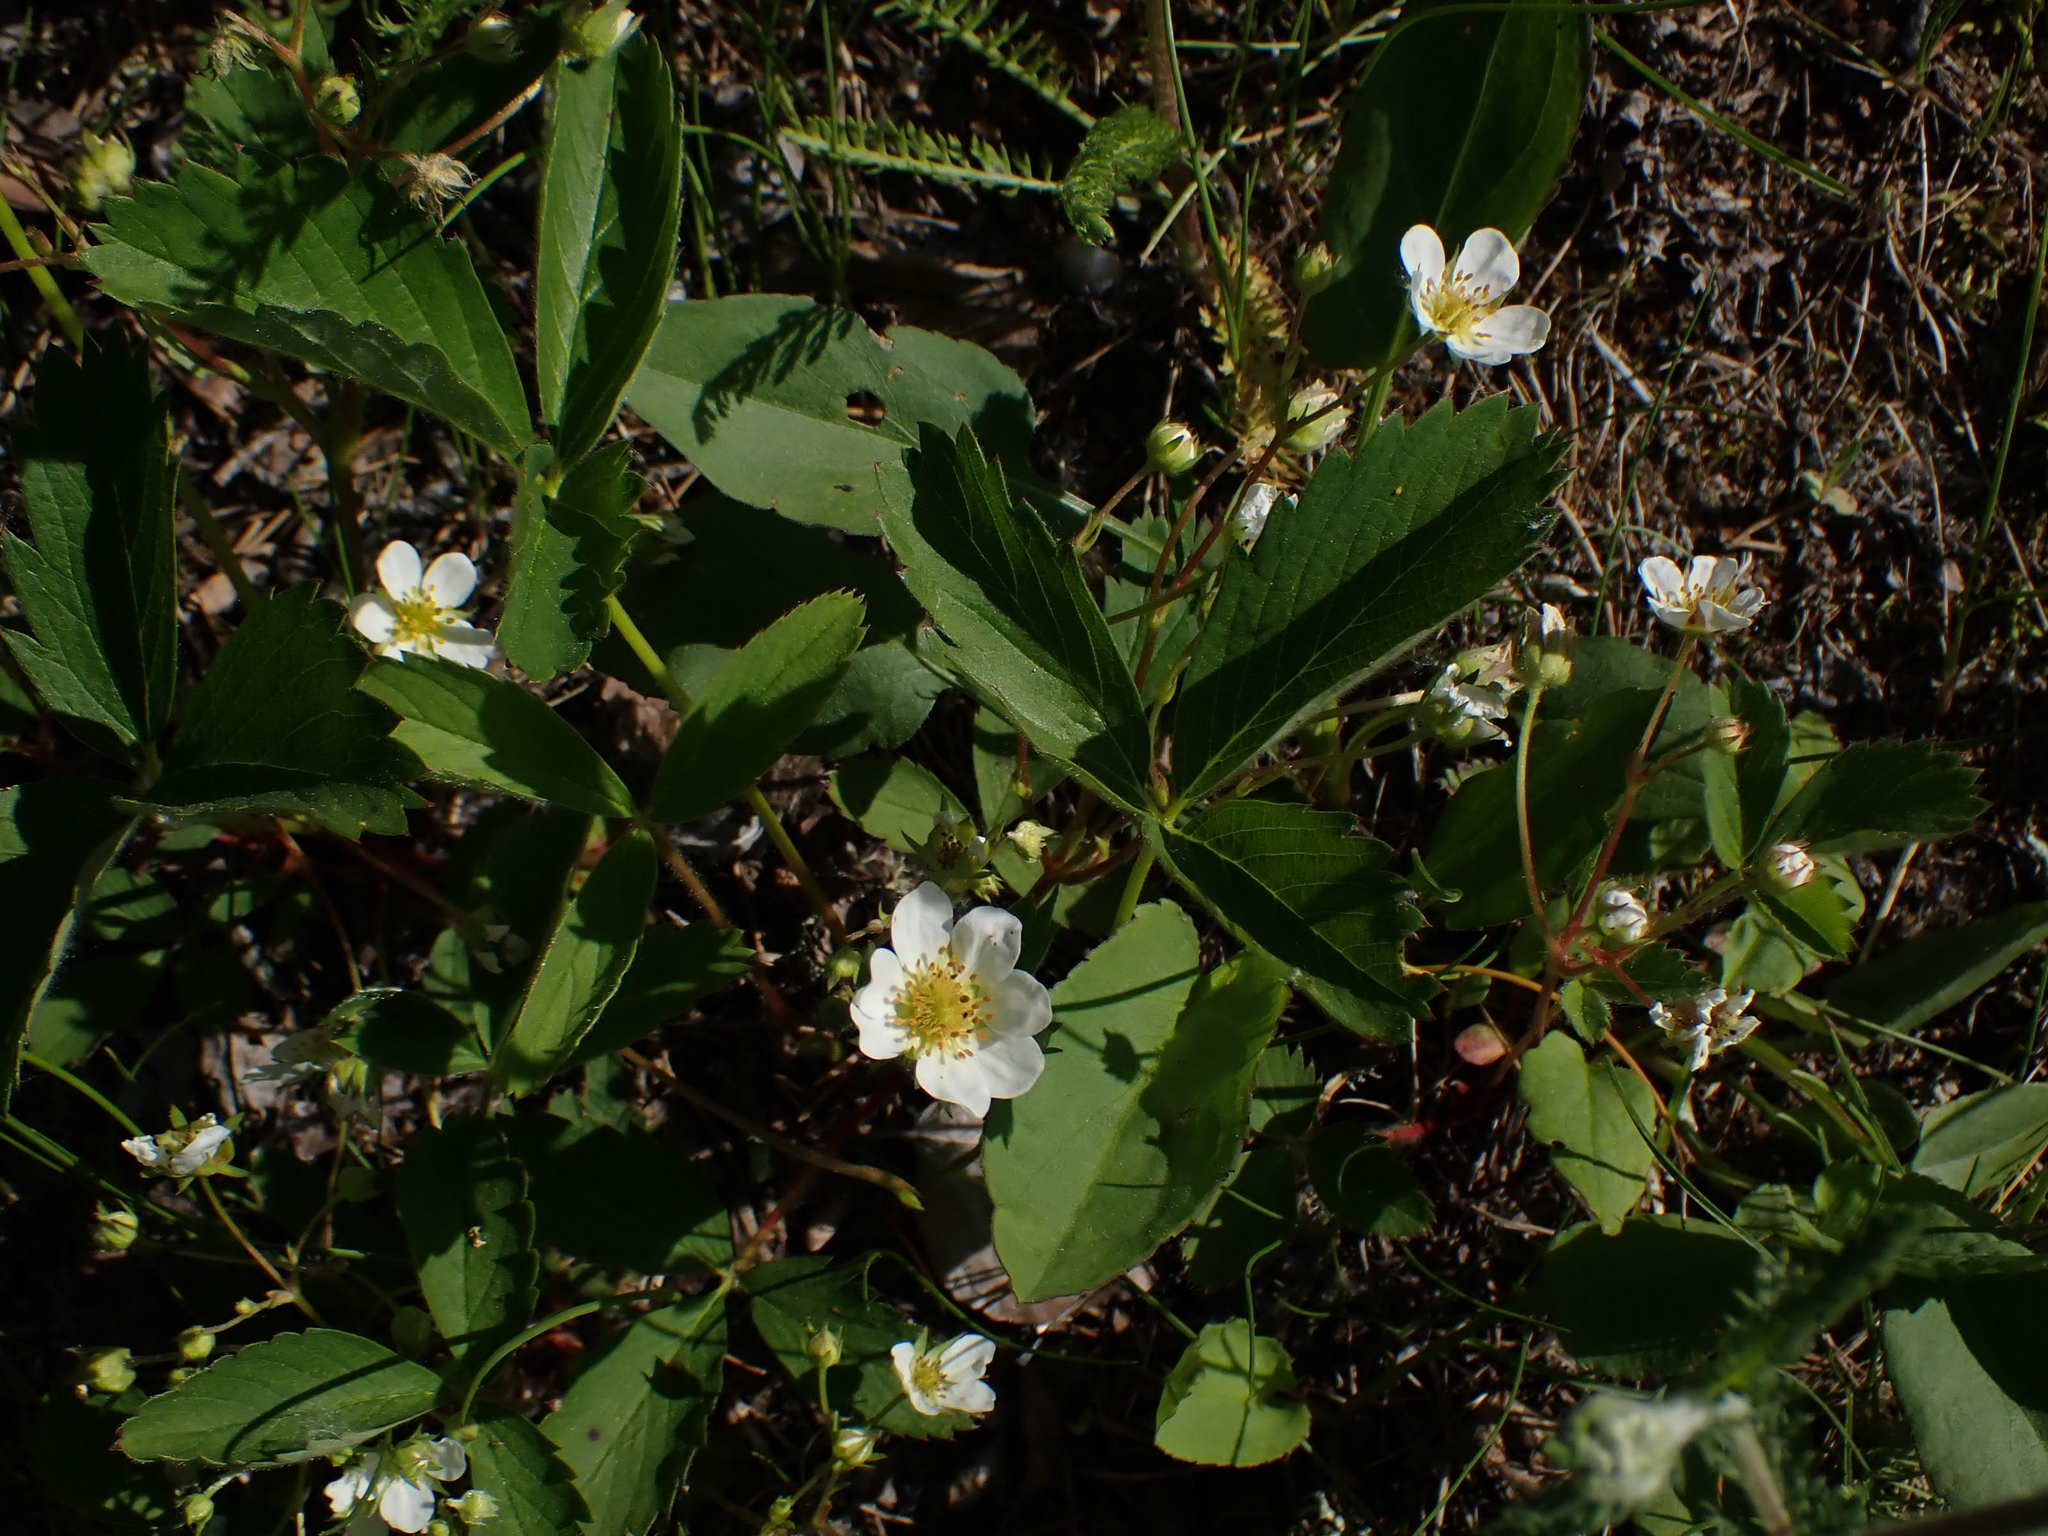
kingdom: Plantae
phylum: Tracheophyta
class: Magnoliopsida
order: Rosales
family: Rosaceae
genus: Fragaria
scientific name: Fragaria virginiana
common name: Thickleaved wild strawberry
